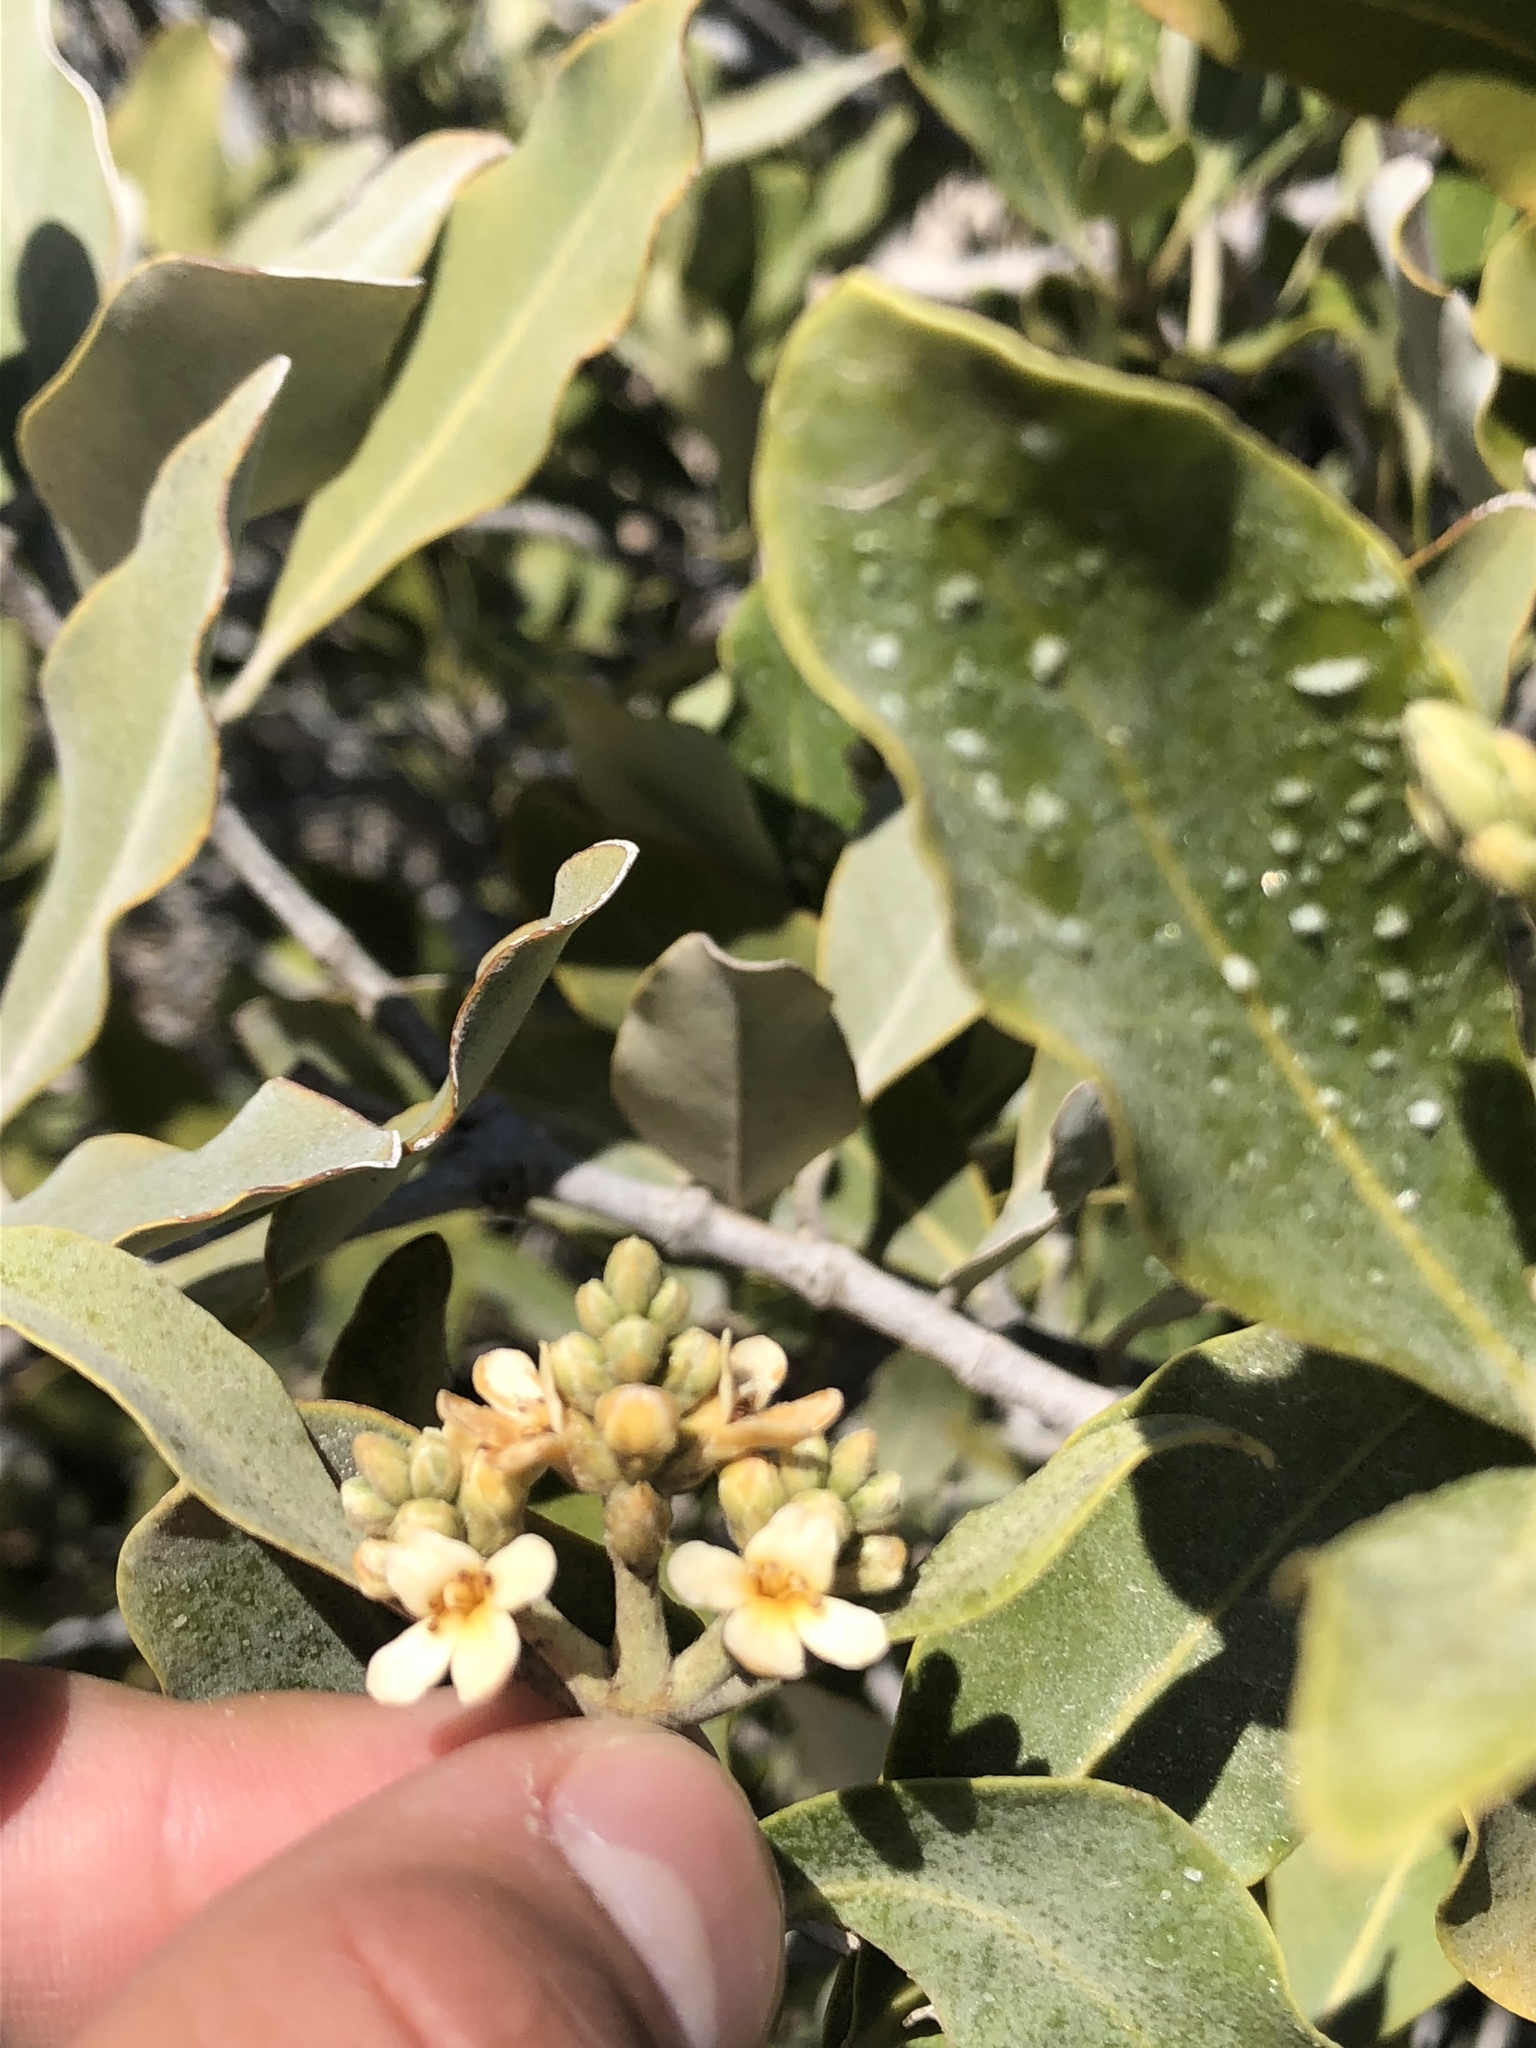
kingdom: Plantae
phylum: Tracheophyta
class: Magnoliopsida
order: Lamiales
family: Acanthaceae
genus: Avicennia
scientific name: Avicennia germinans
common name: Black mangrove
